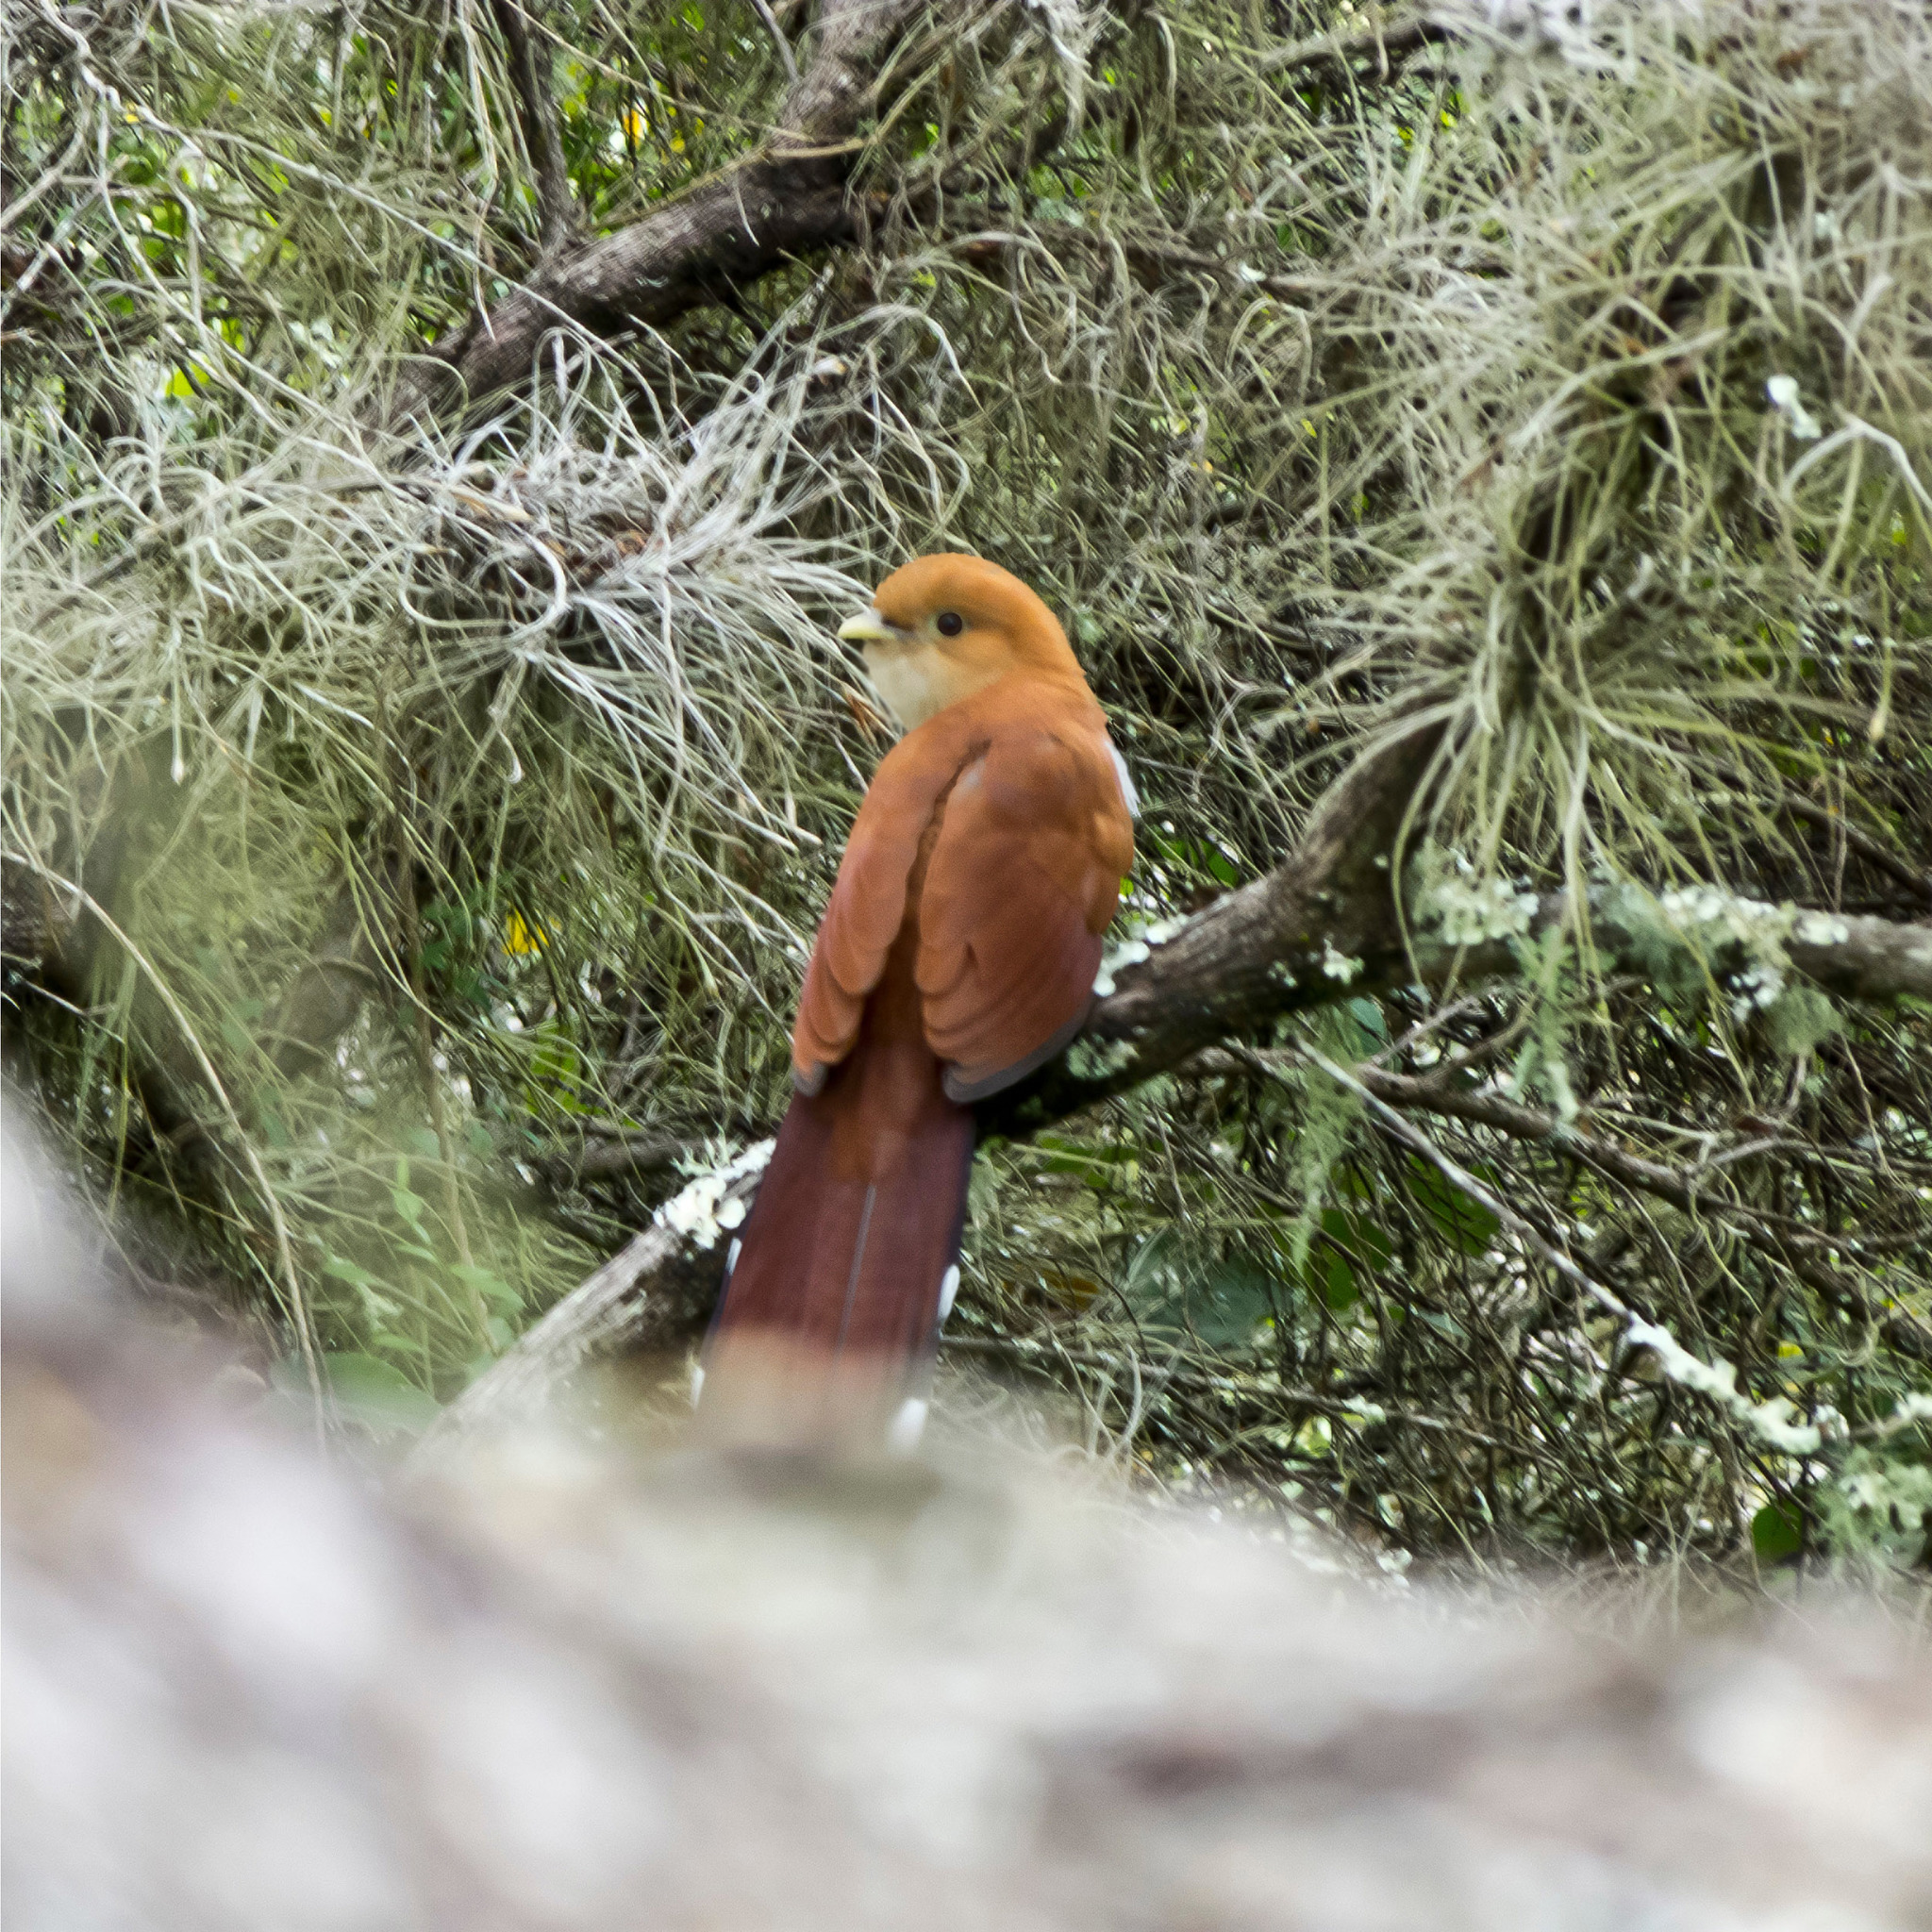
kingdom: Animalia
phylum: Chordata
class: Aves
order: Cuculiformes
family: Cuculidae
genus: Piaya
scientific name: Piaya cayana
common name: Squirrel cuckoo
